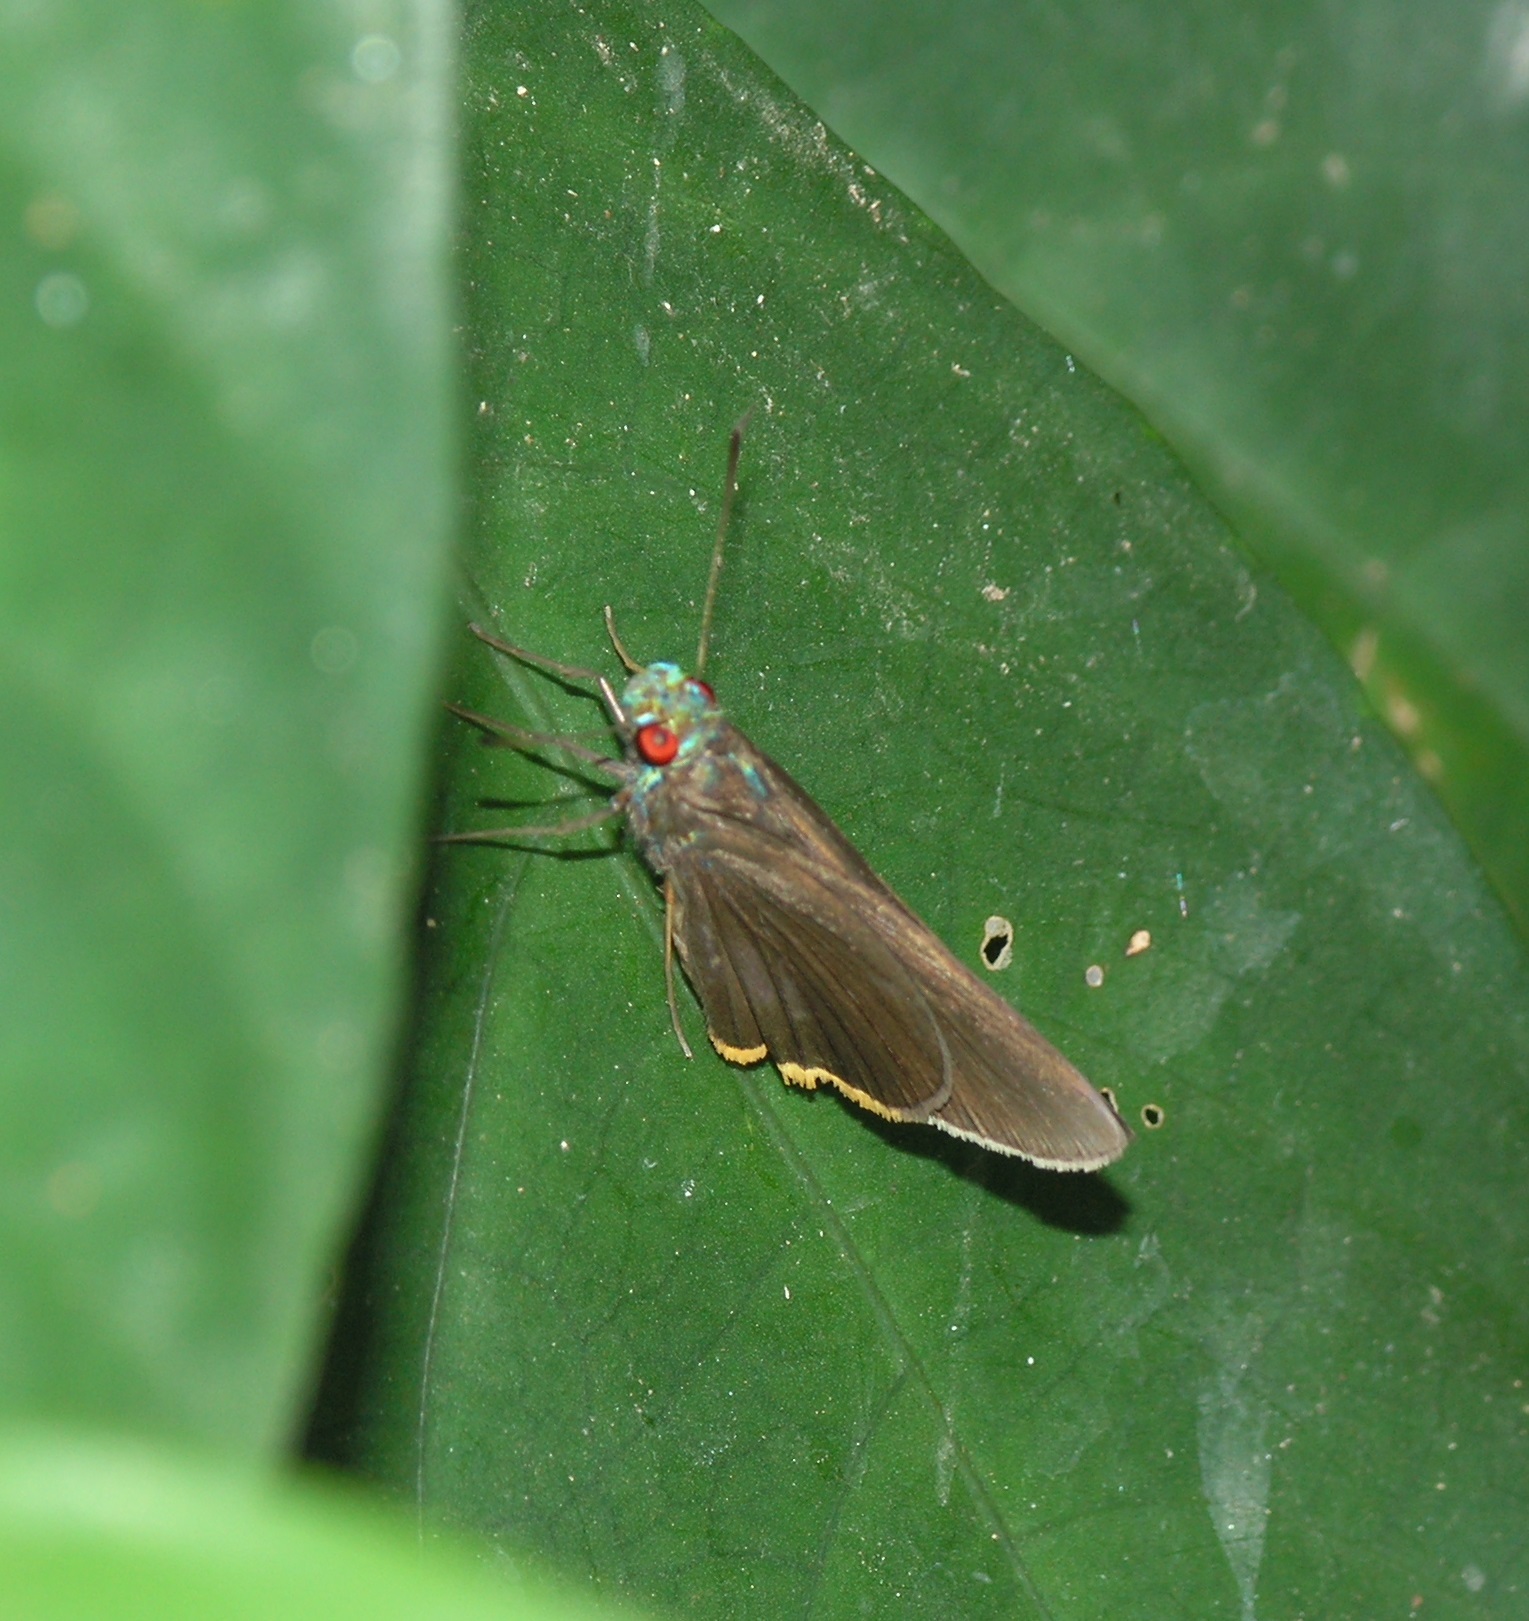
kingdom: Animalia
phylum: Arthropoda
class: Insecta
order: Lepidoptera
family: Hesperiidae
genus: Matapa
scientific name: Matapa sasivarna
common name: Black-veined redeye
